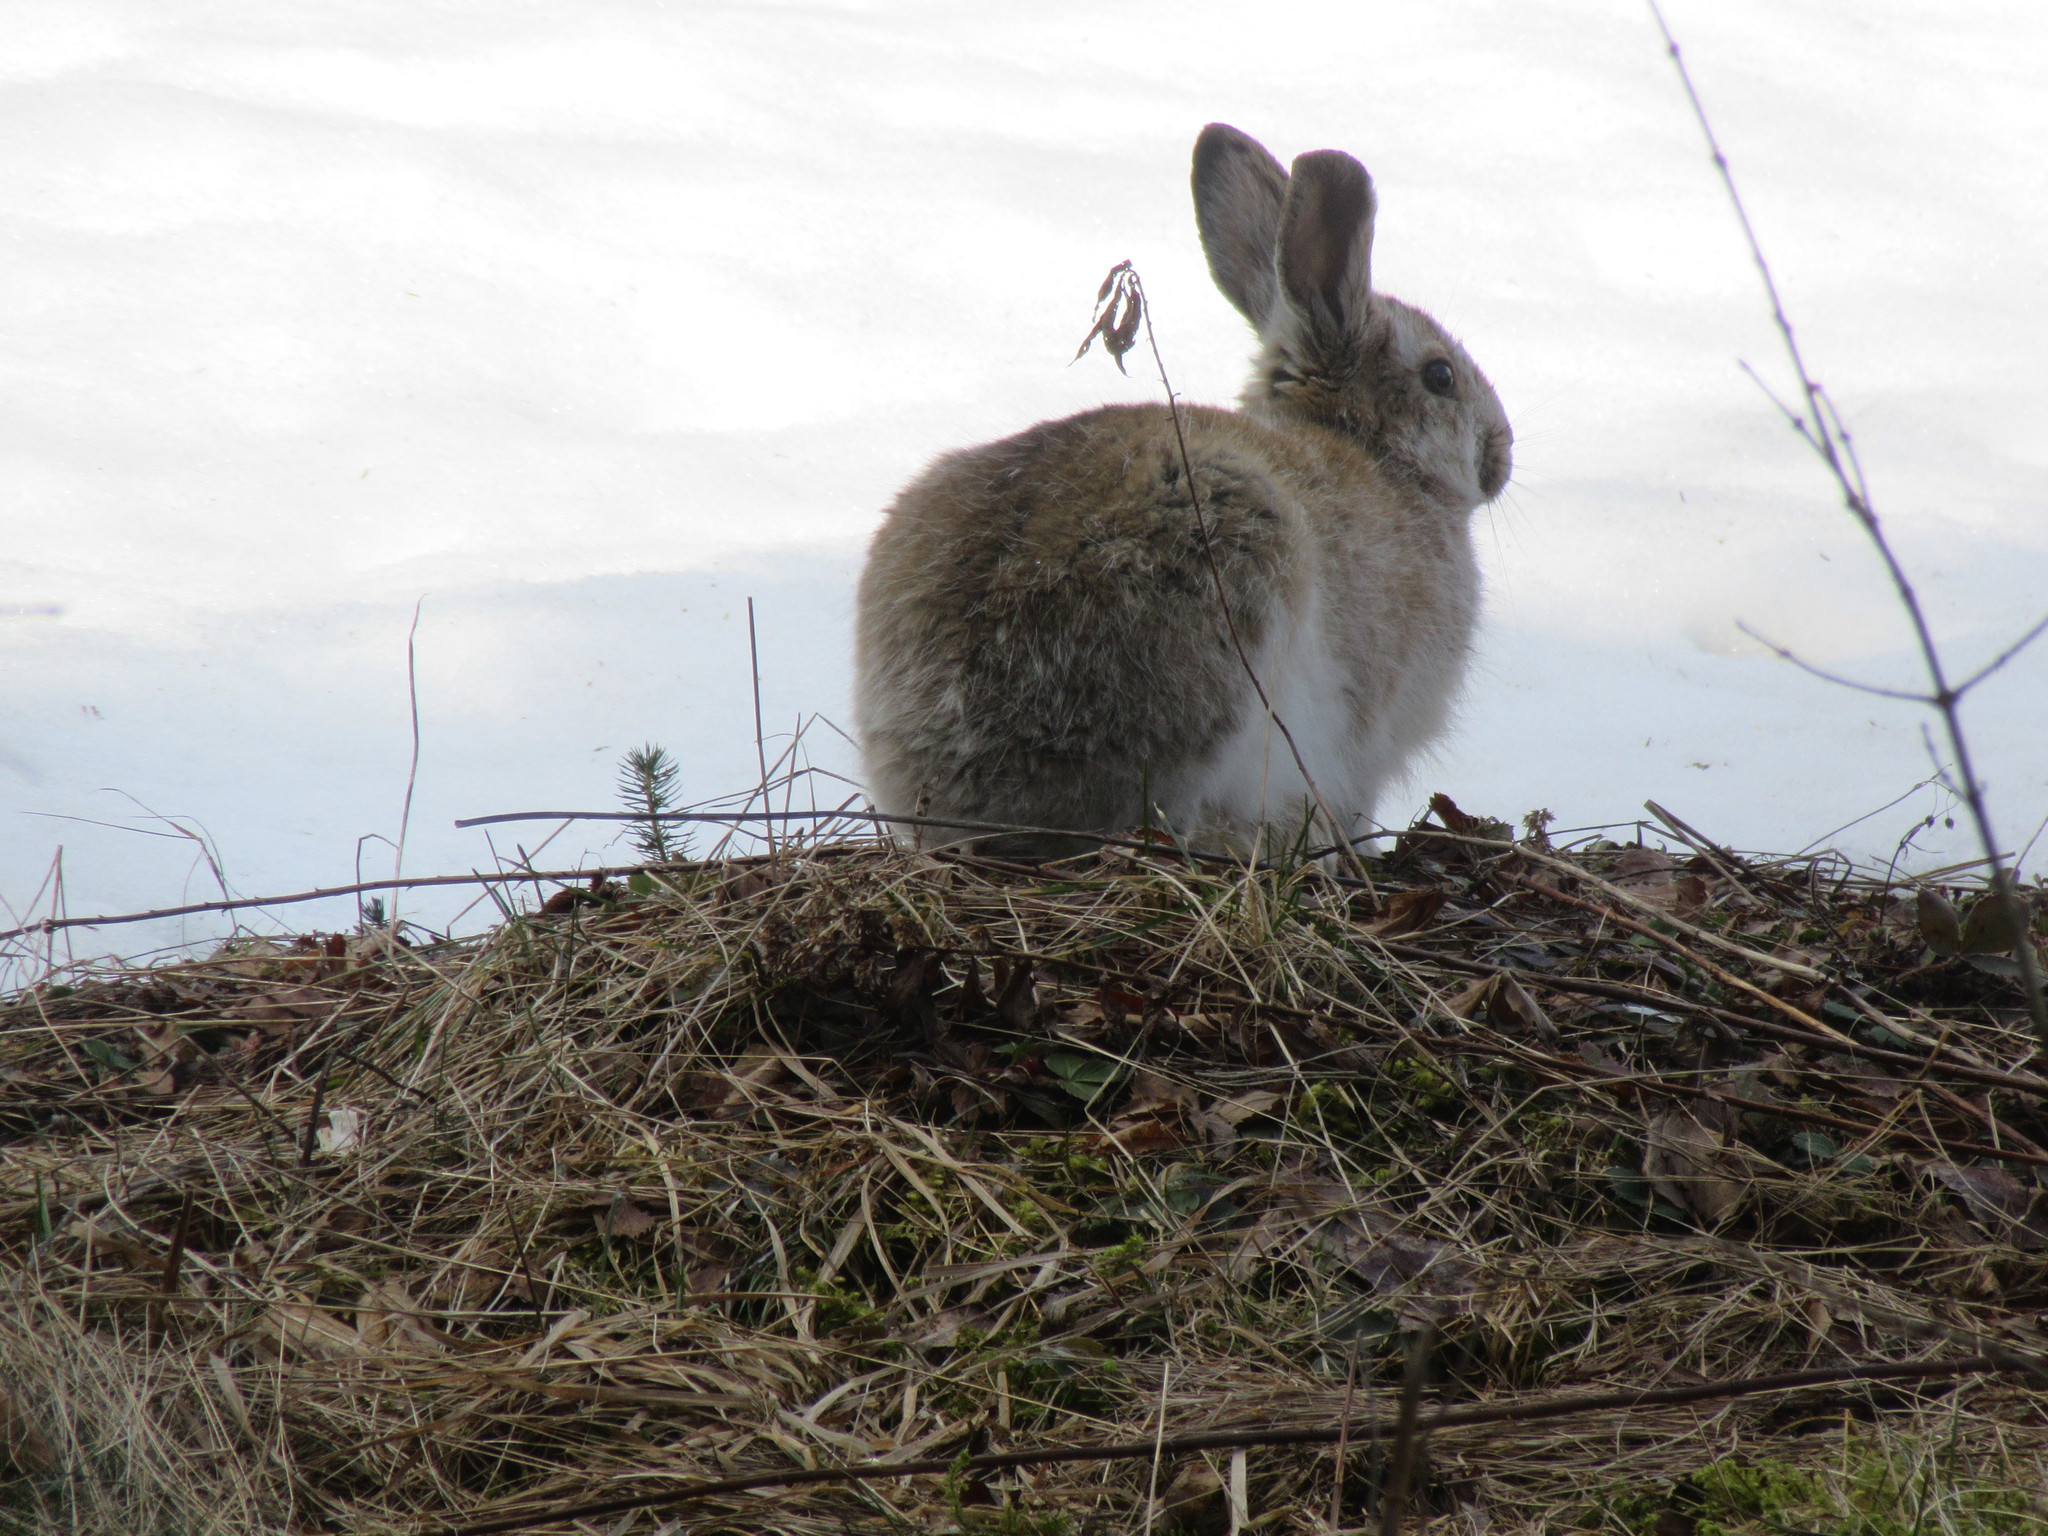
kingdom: Animalia
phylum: Chordata
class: Mammalia
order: Lagomorpha
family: Leporidae
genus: Lepus
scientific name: Lepus americanus
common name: Snowshoe hare
